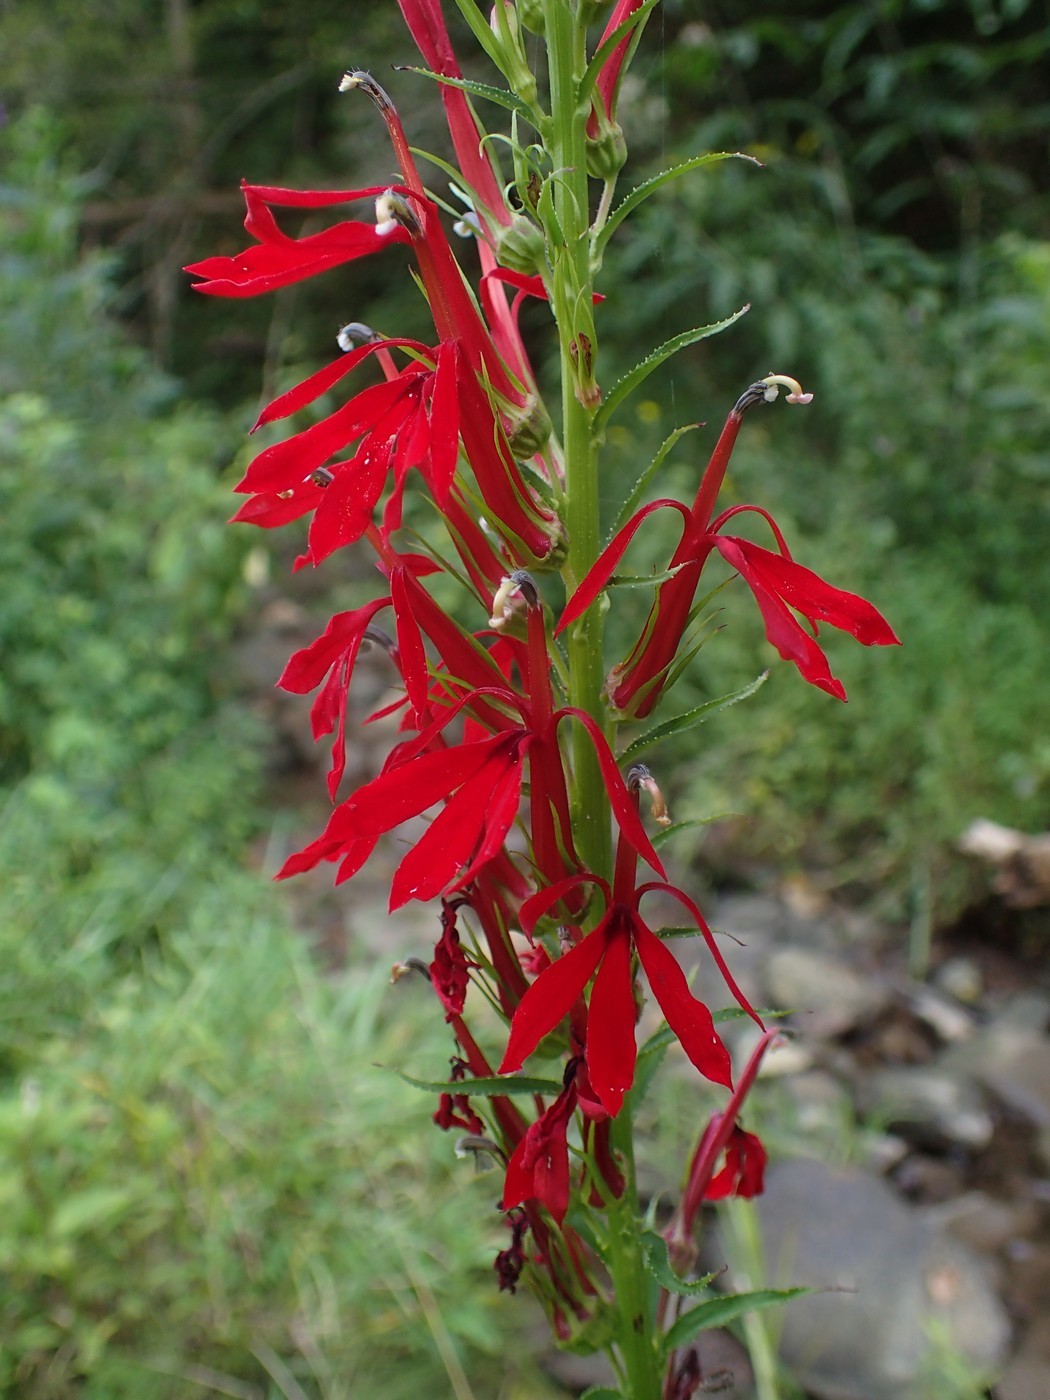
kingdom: Plantae
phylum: Tracheophyta
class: Magnoliopsida
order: Asterales
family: Campanulaceae
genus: Lobelia
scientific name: Lobelia cardinalis
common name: Cardinal flower
